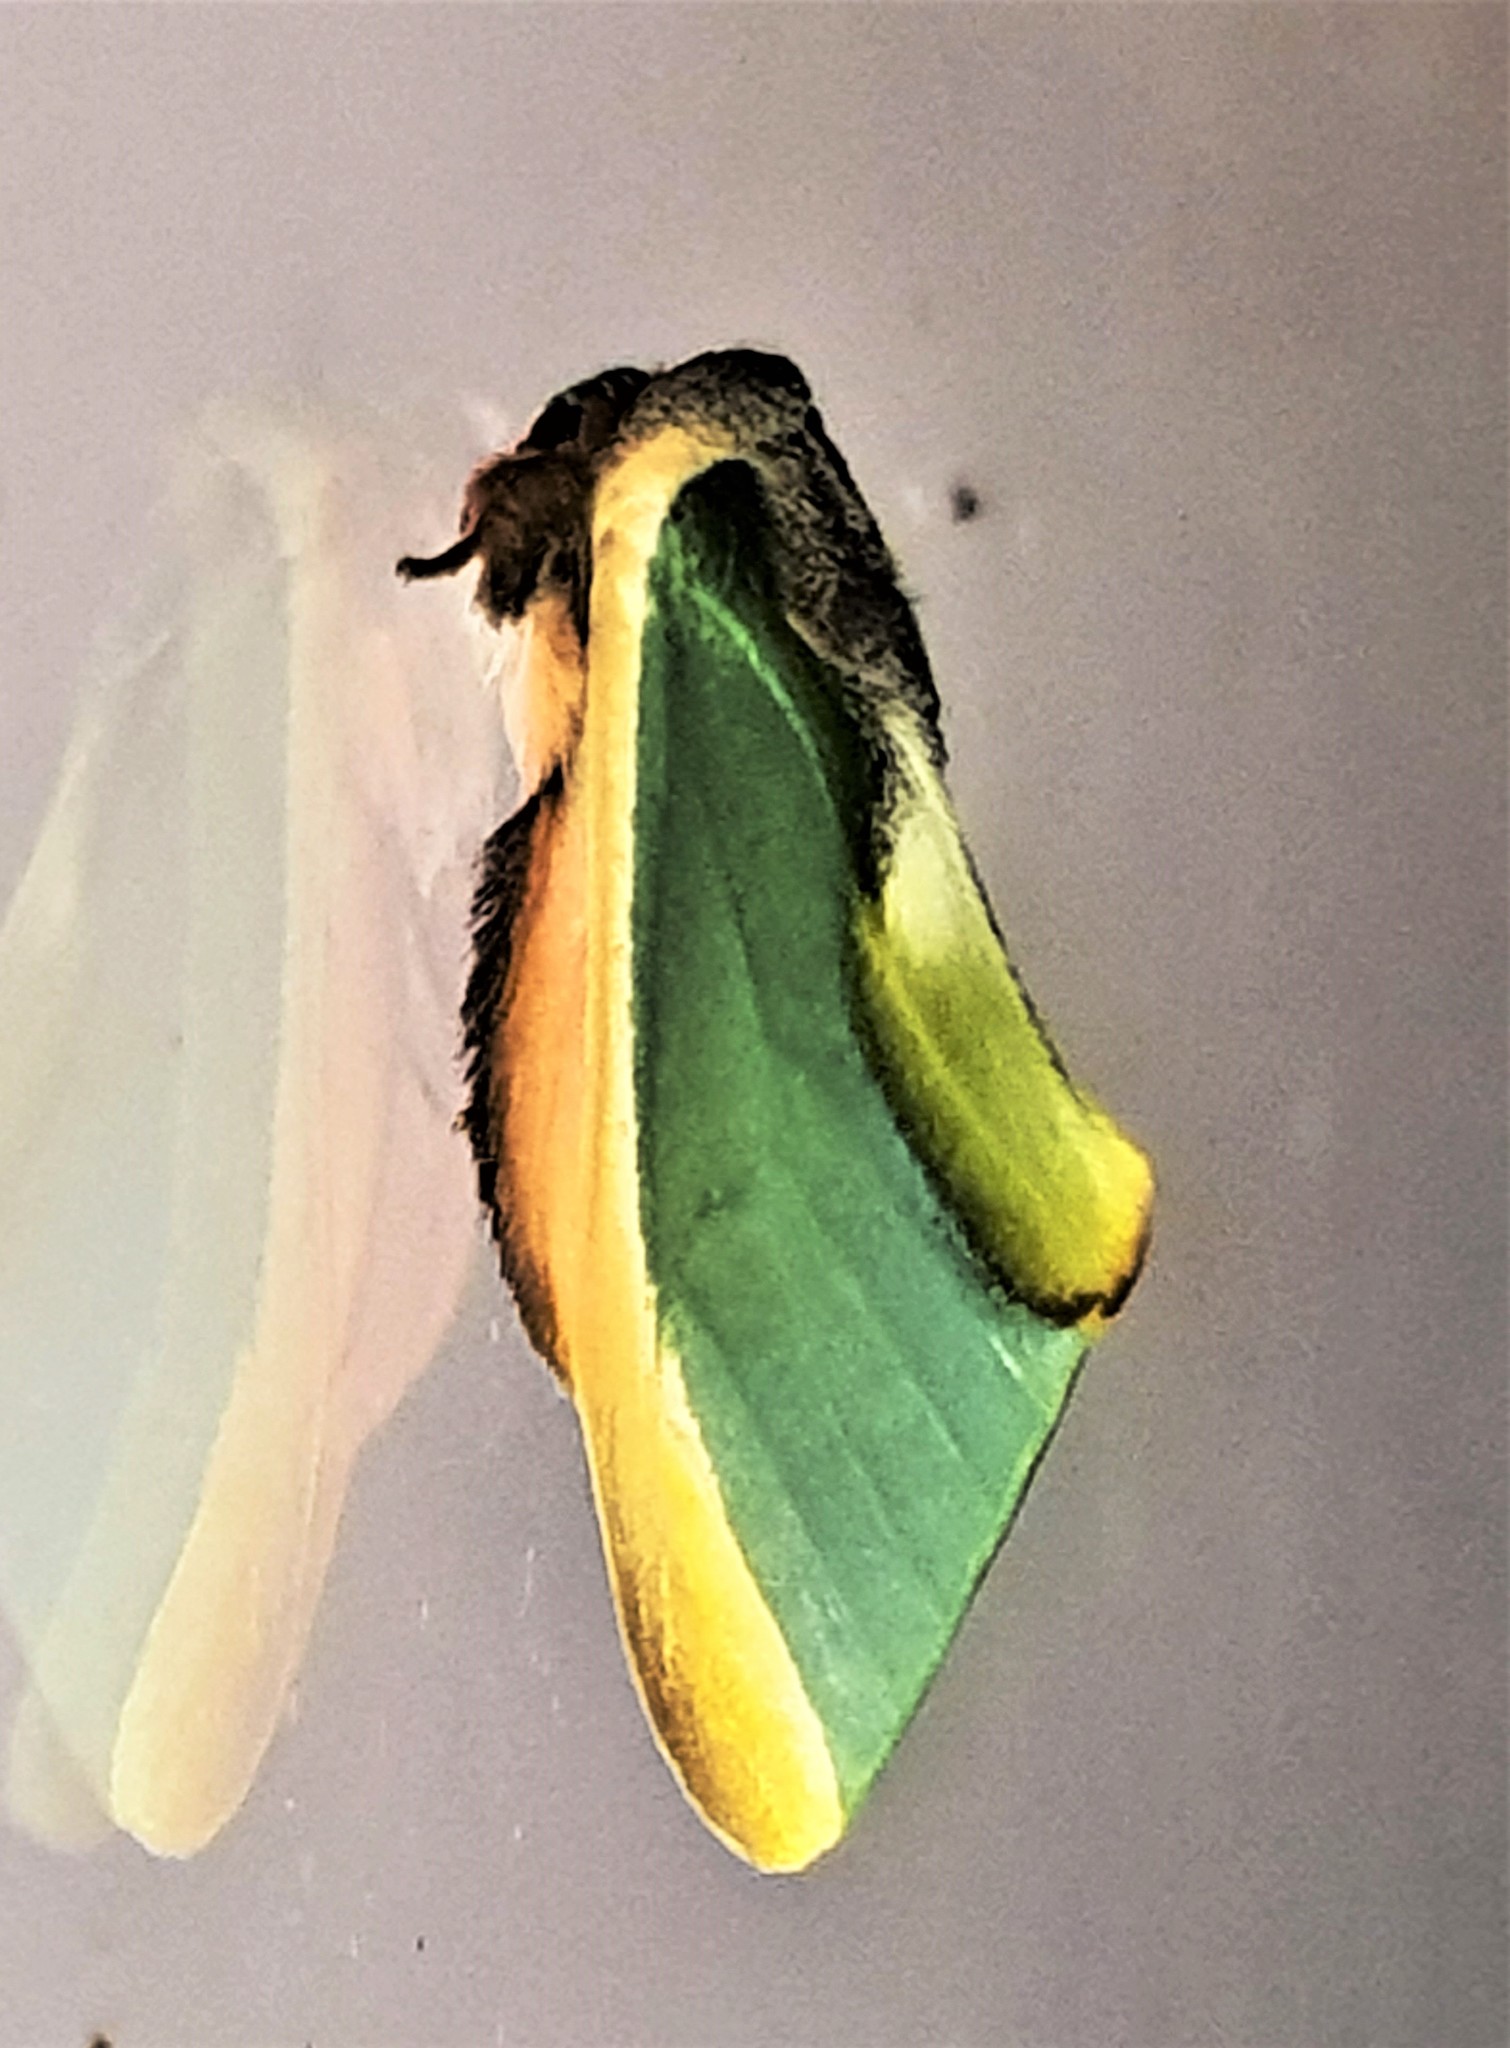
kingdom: Animalia
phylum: Arthropoda
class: Insecta
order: Lepidoptera
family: Notodontidae
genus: Rosema
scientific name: Rosema apollinairei
